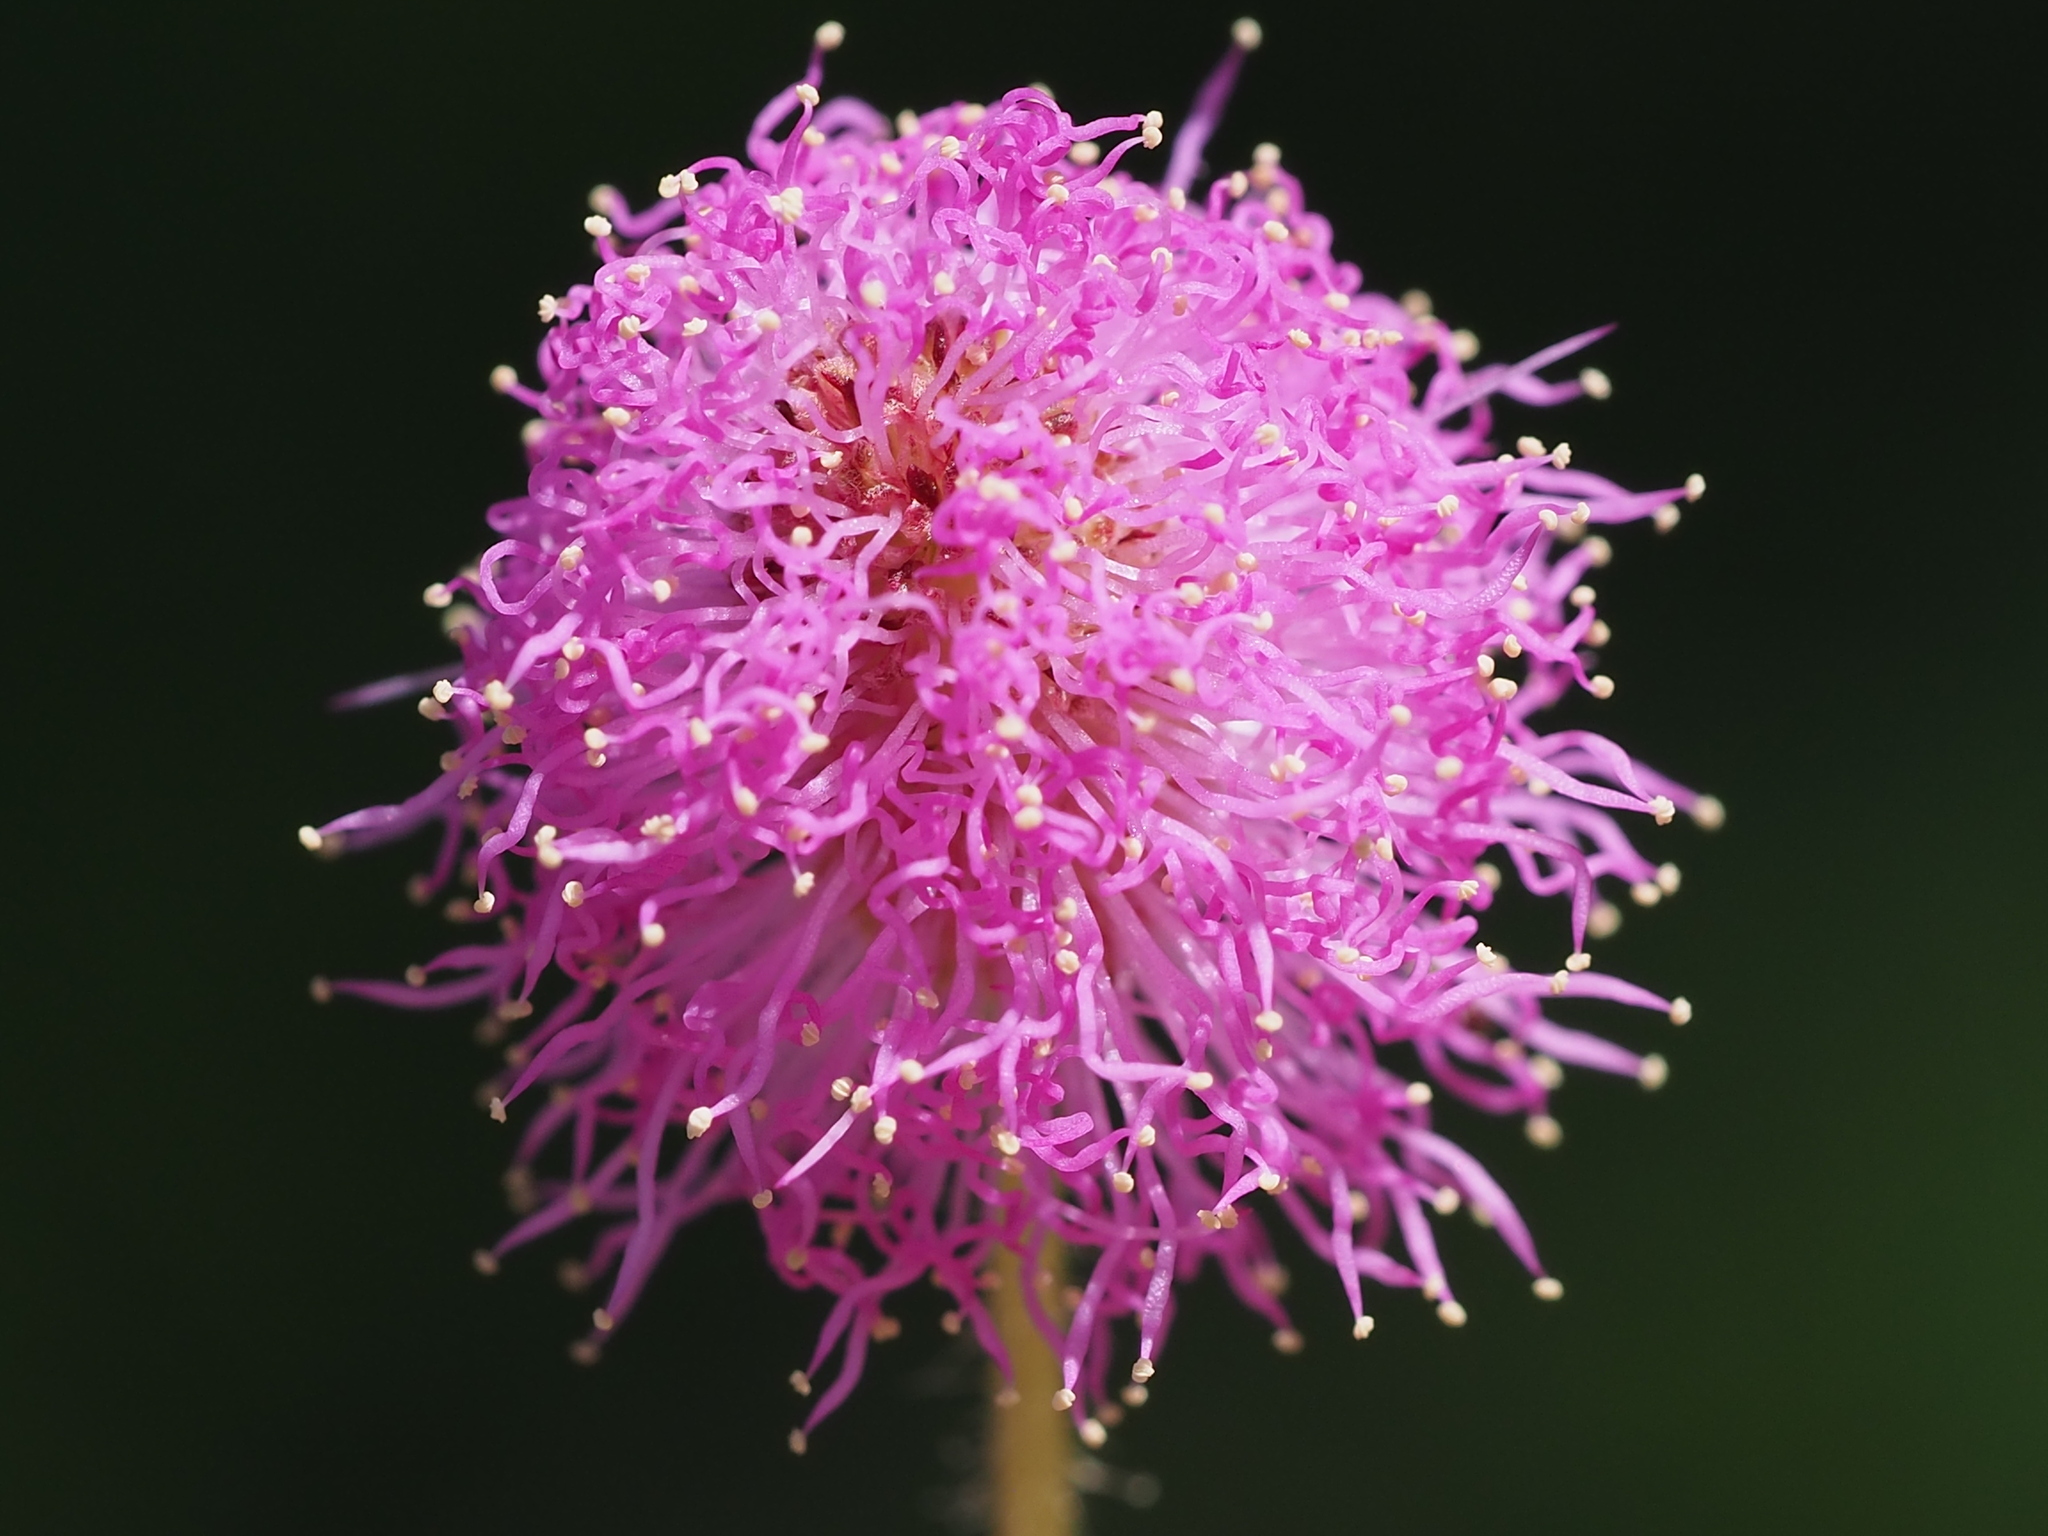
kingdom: Plantae
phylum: Tracheophyta
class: Magnoliopsida
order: Fabales
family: Fabaceae
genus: Mimosa
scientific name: Mimosa pudica
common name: Sensitive plant
